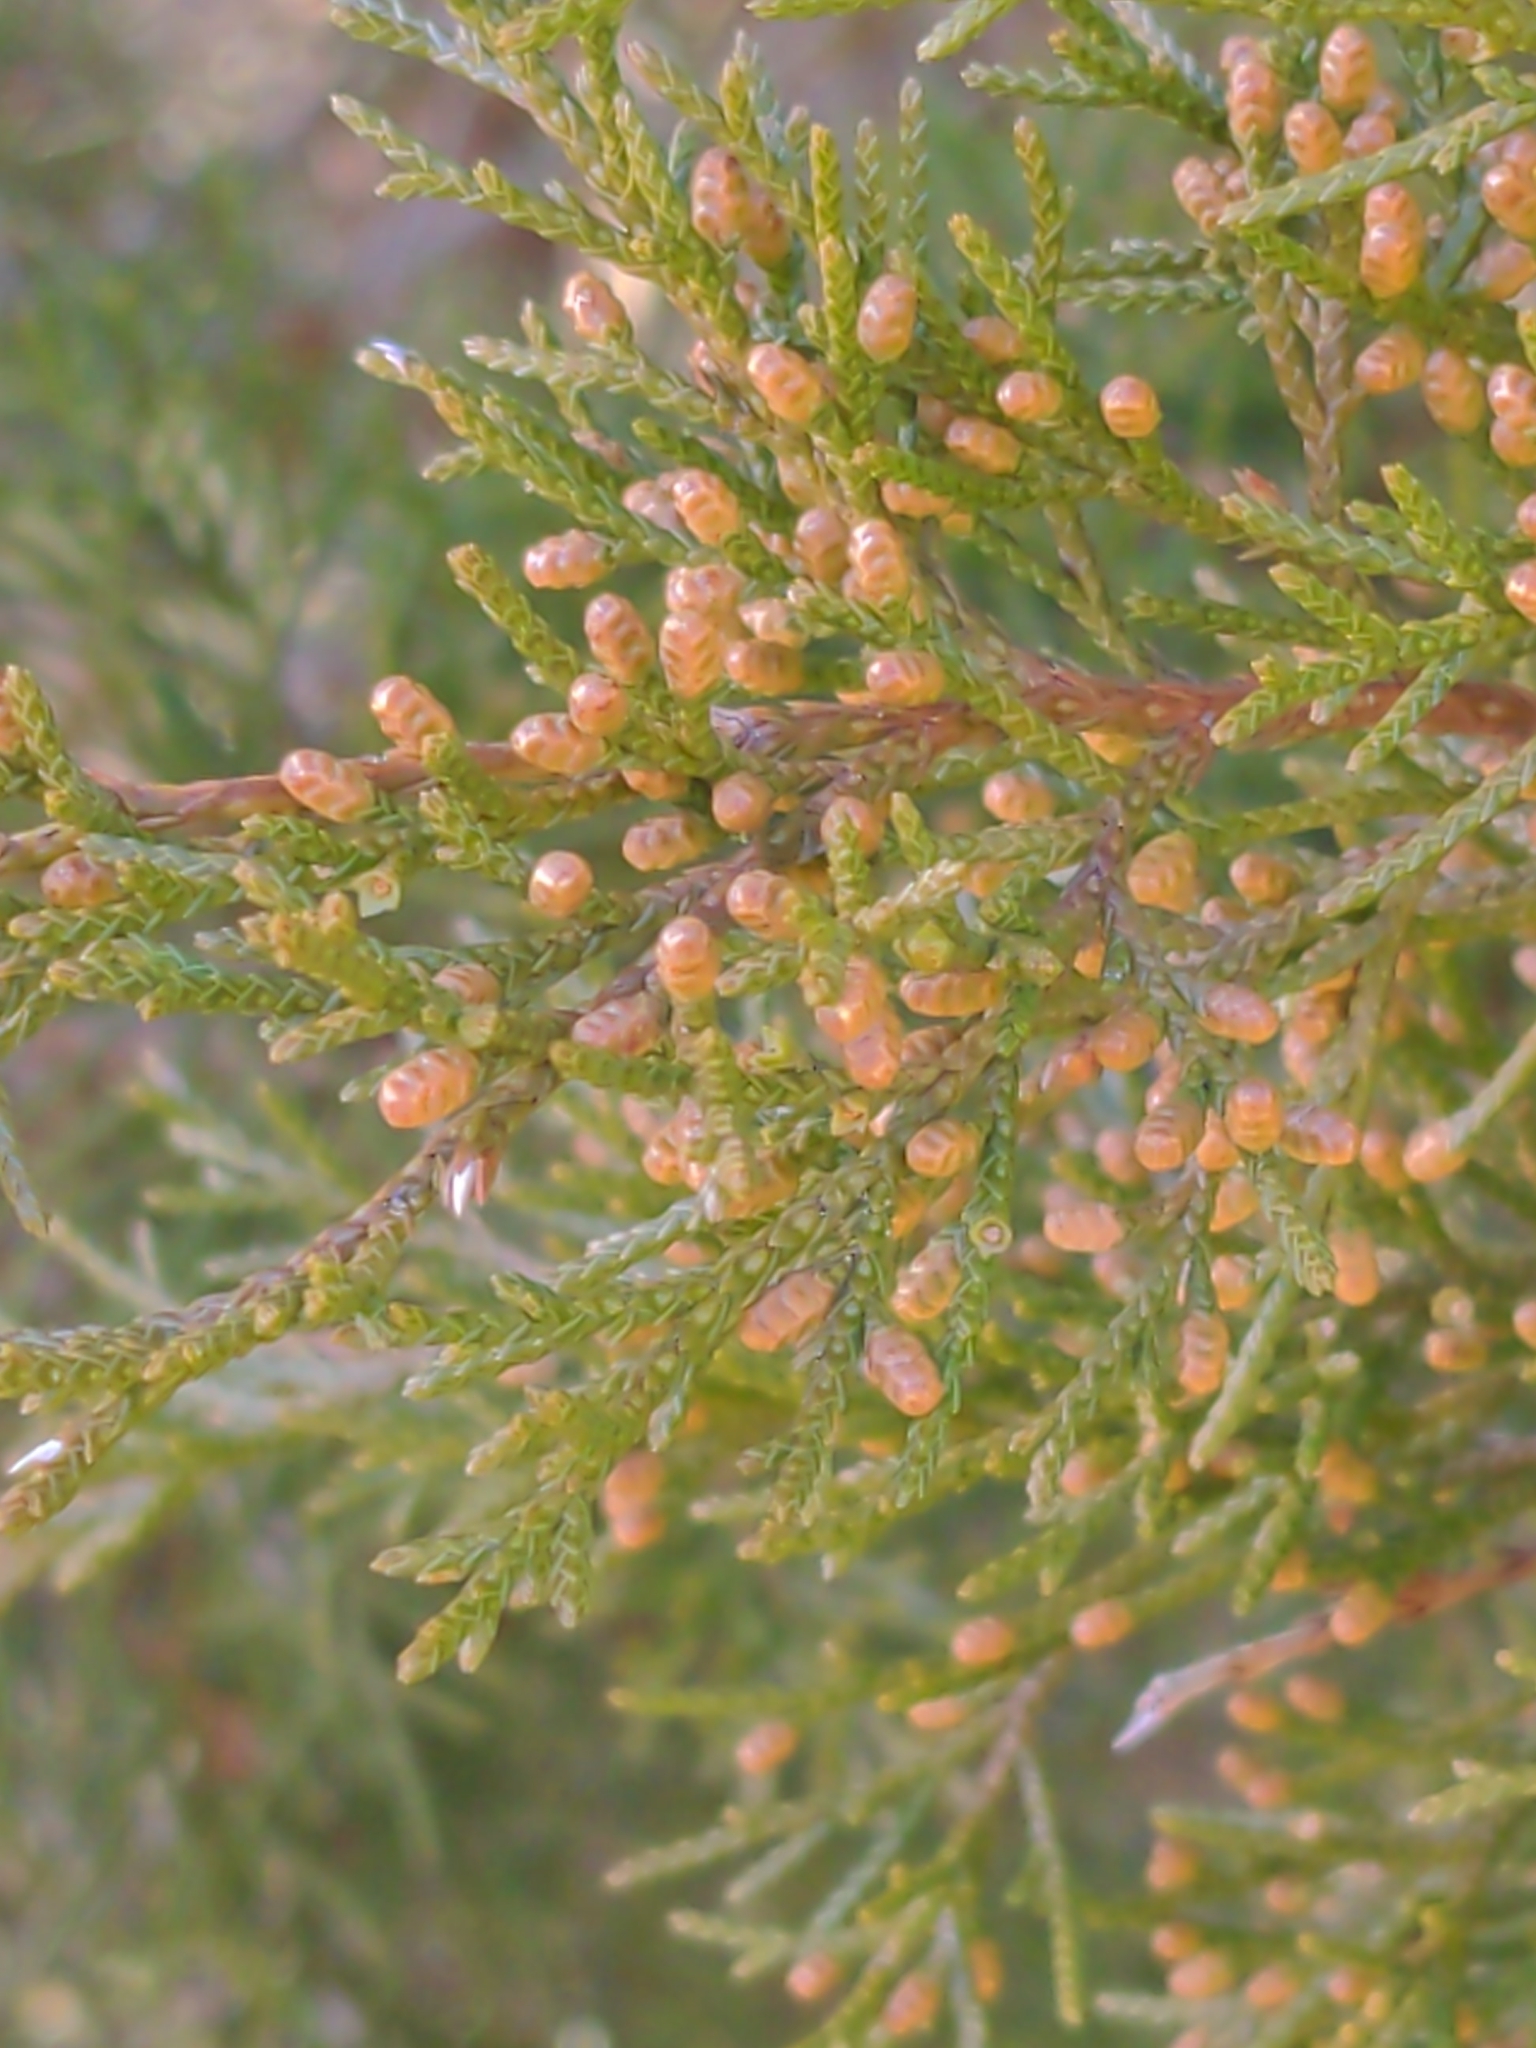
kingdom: Plantae
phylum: Tracheophyta
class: Pinopsida
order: Pinales
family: Cupressaceae
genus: Juniperus
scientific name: Juniperus virginiana
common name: Red juniper
